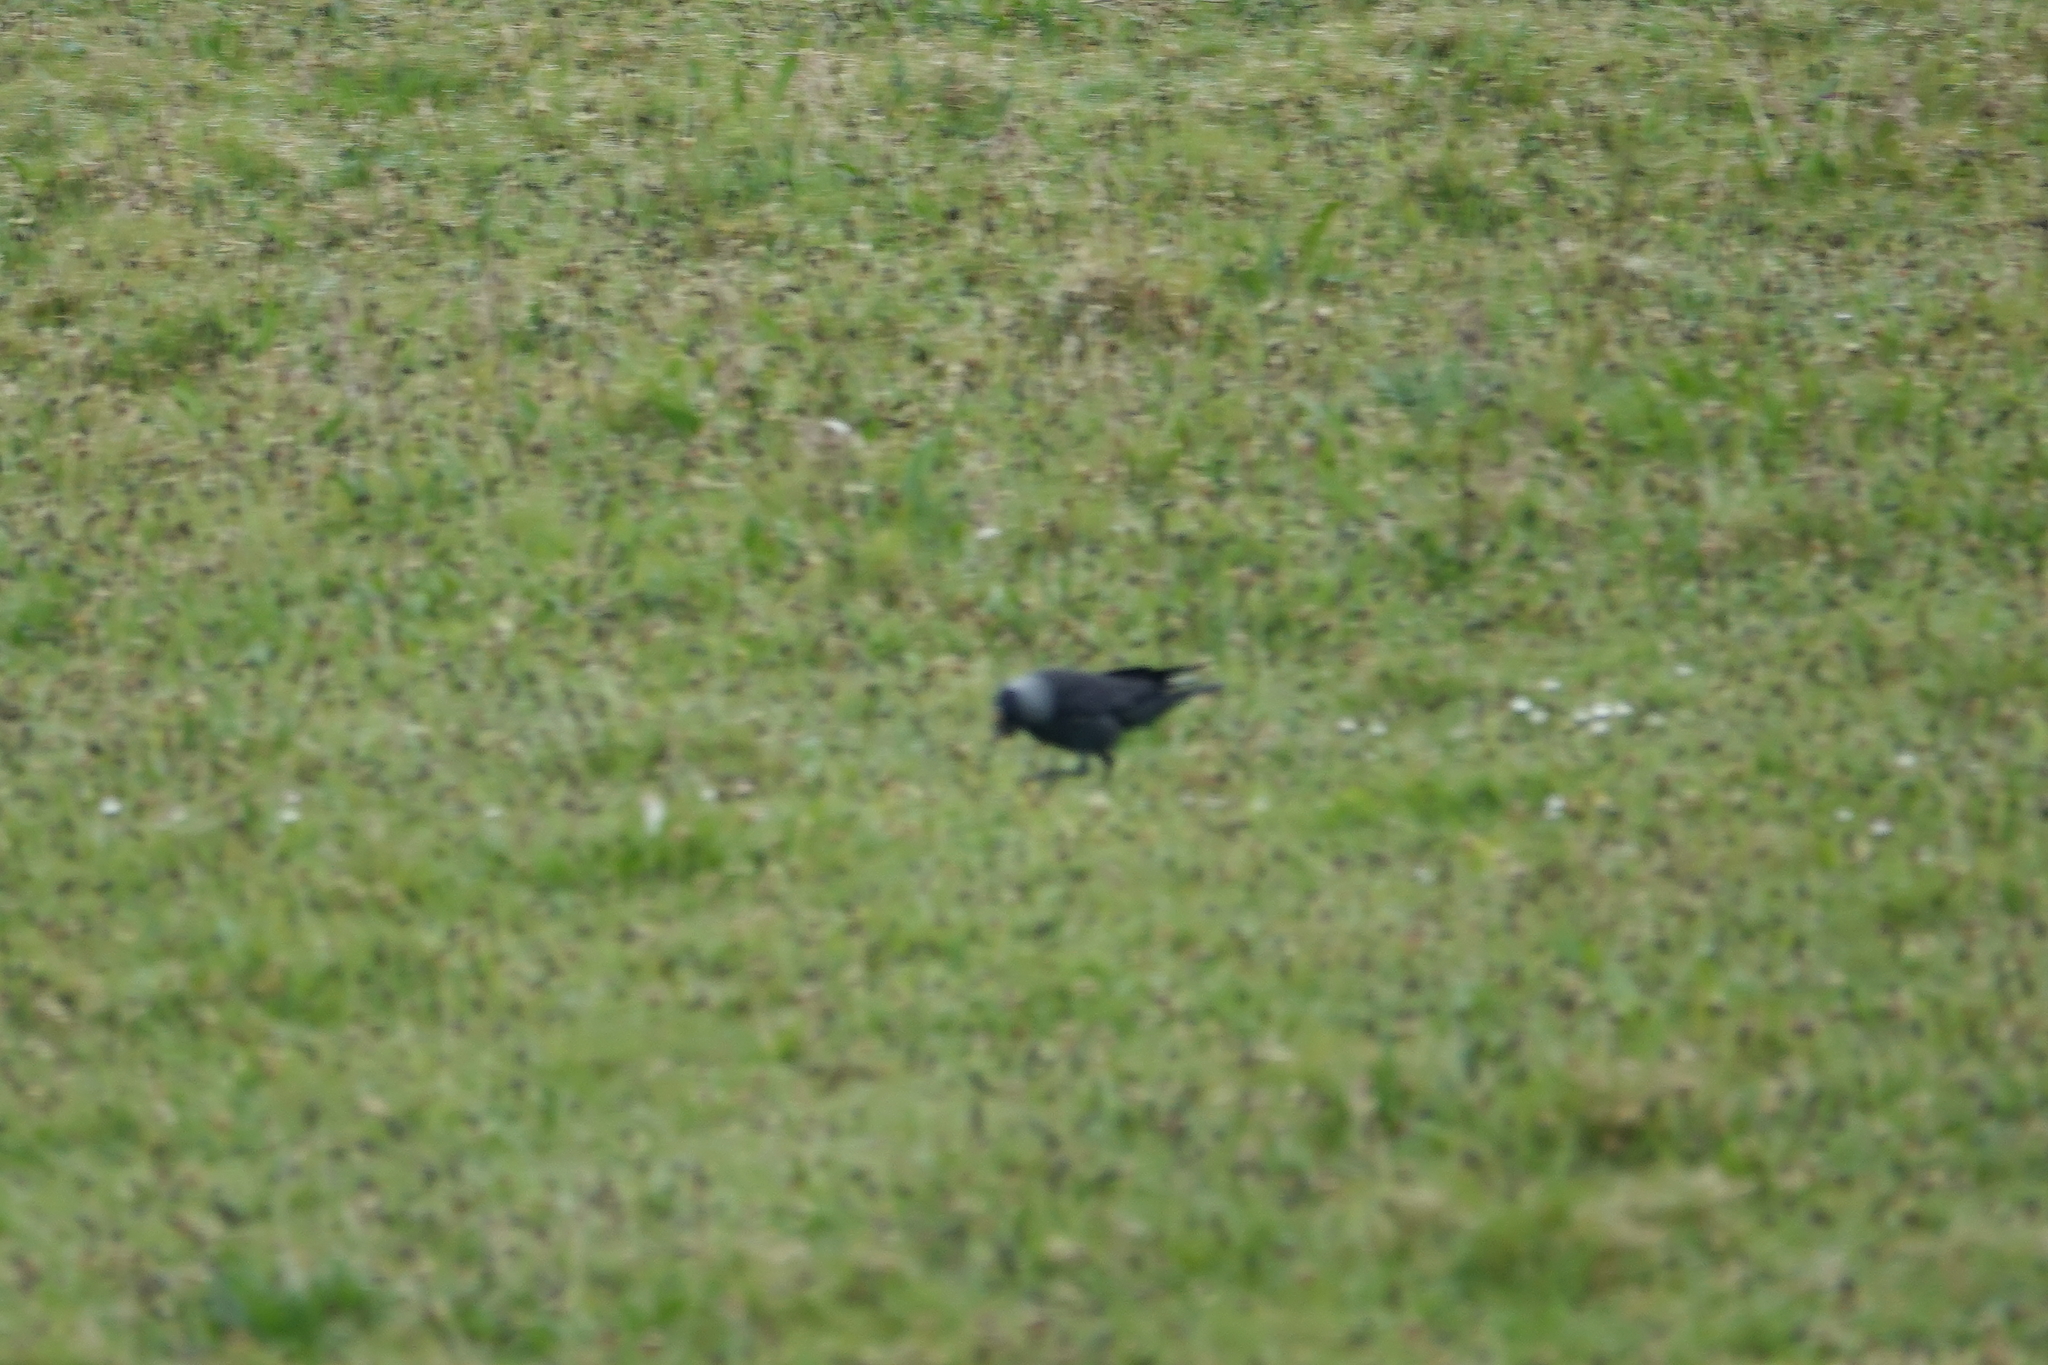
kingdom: Animalia
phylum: Chordata
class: Aves
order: Passeriformes
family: Corvidae
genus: Coloeus
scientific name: Coloeus monedula
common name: Western jackdaw
